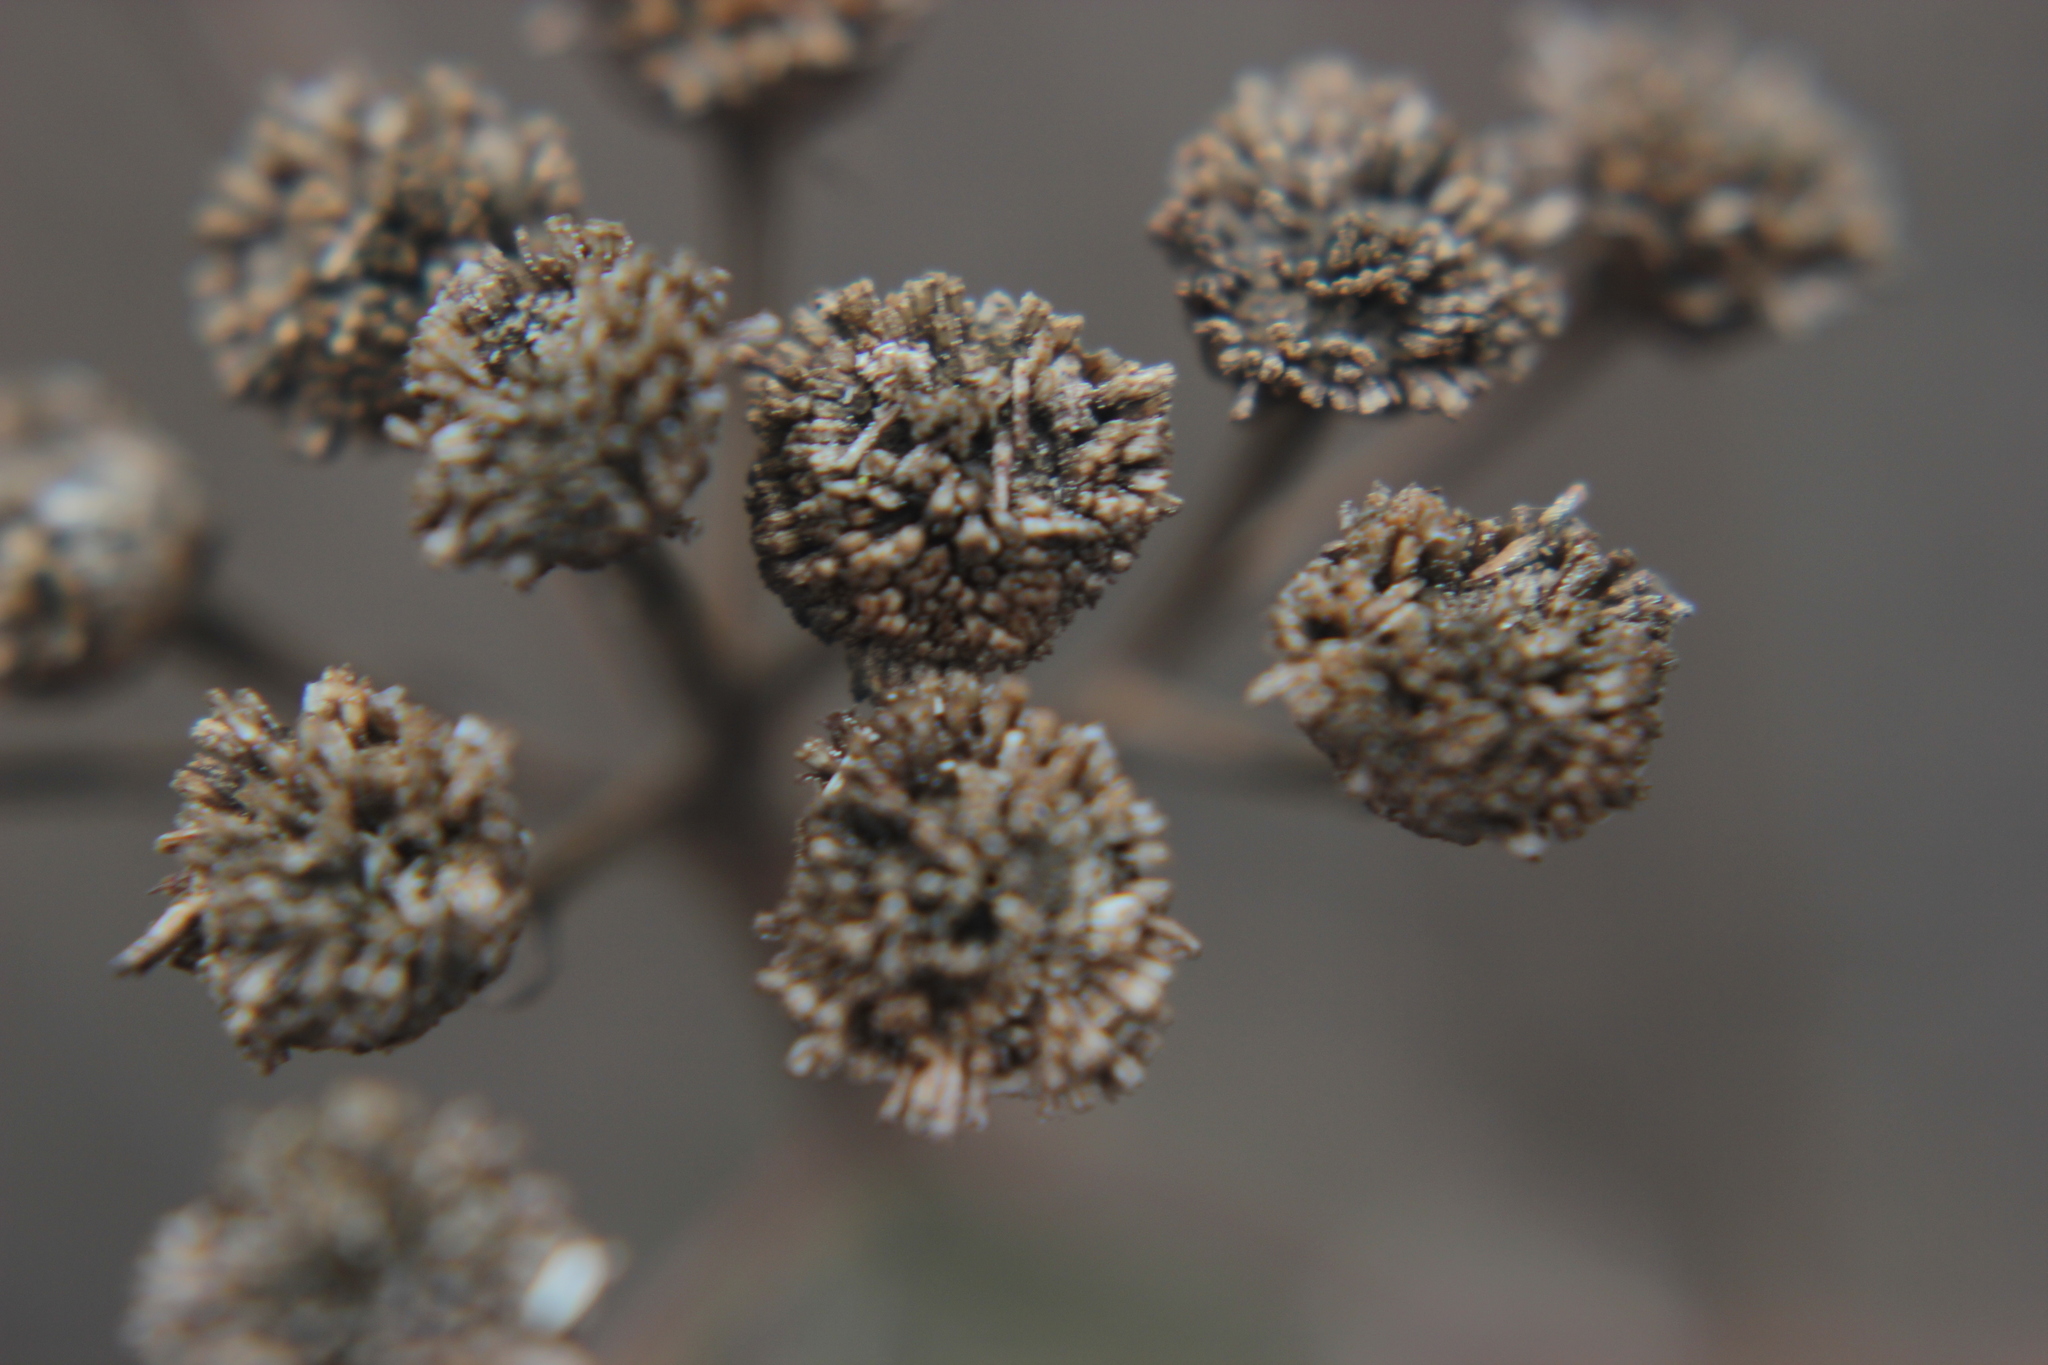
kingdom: Plantae
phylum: Tracheophyta
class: Magnoliopsida
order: Asterales
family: Asteraceae
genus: Tanacetum
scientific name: Tanacetum vulgare
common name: Common tansy
